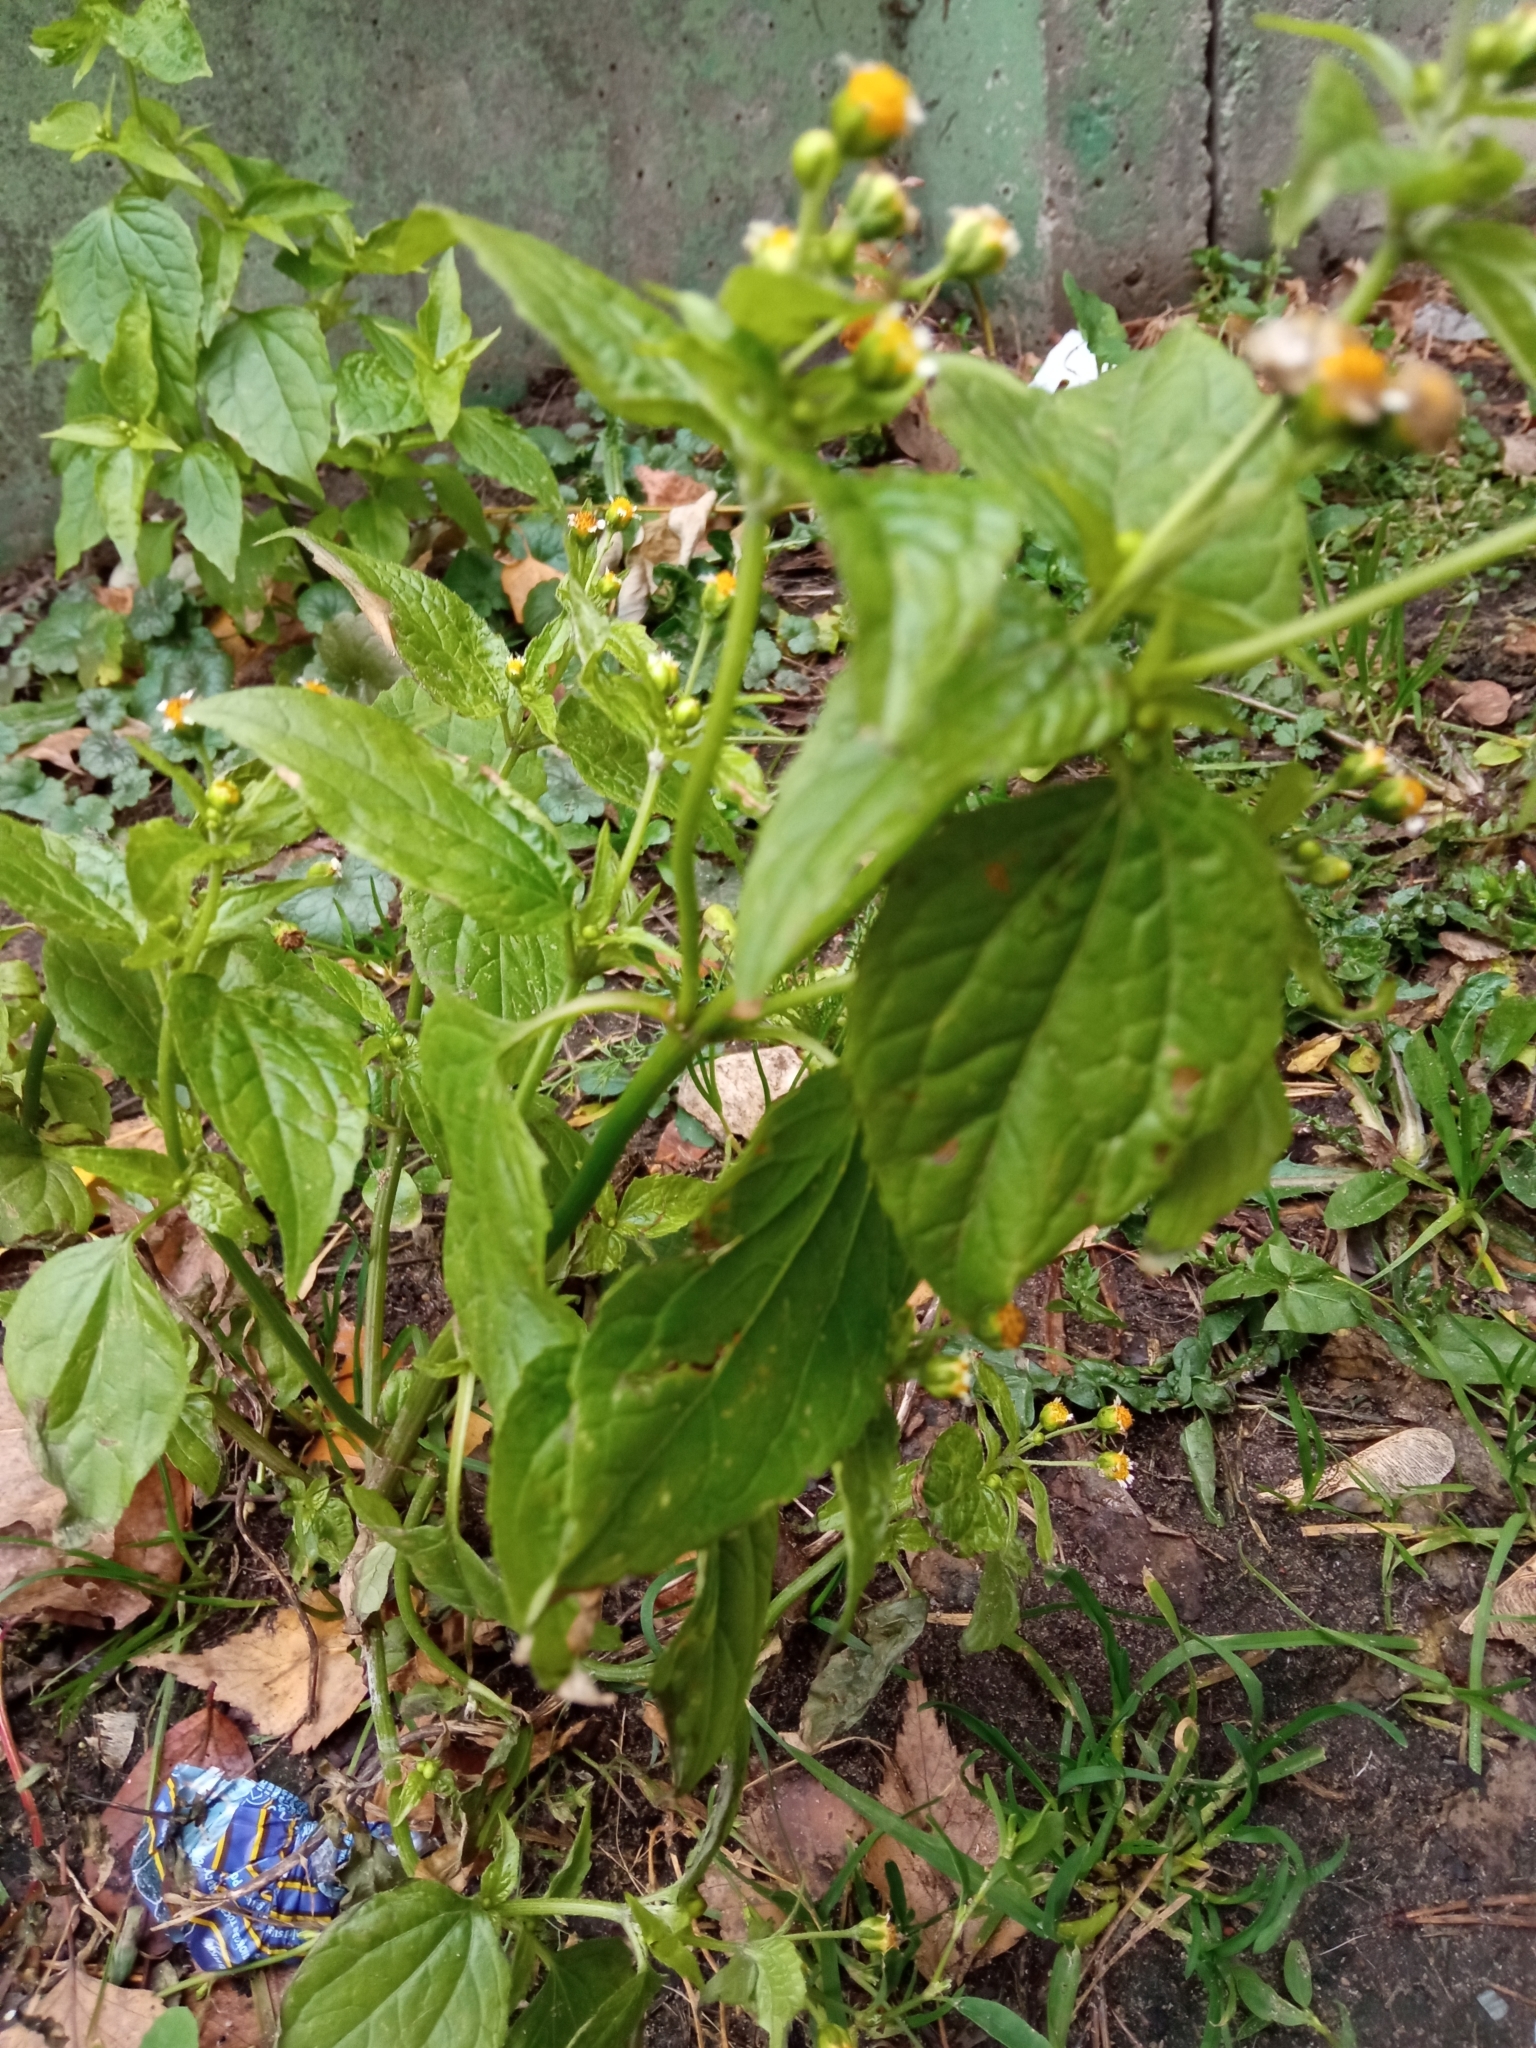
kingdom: Plantae
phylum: Tracheophyta
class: Magnoliopsida
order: Asterales
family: Asteraceae
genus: Galinsoga
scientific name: Galinsoga parviflora
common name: Gallant soldier
